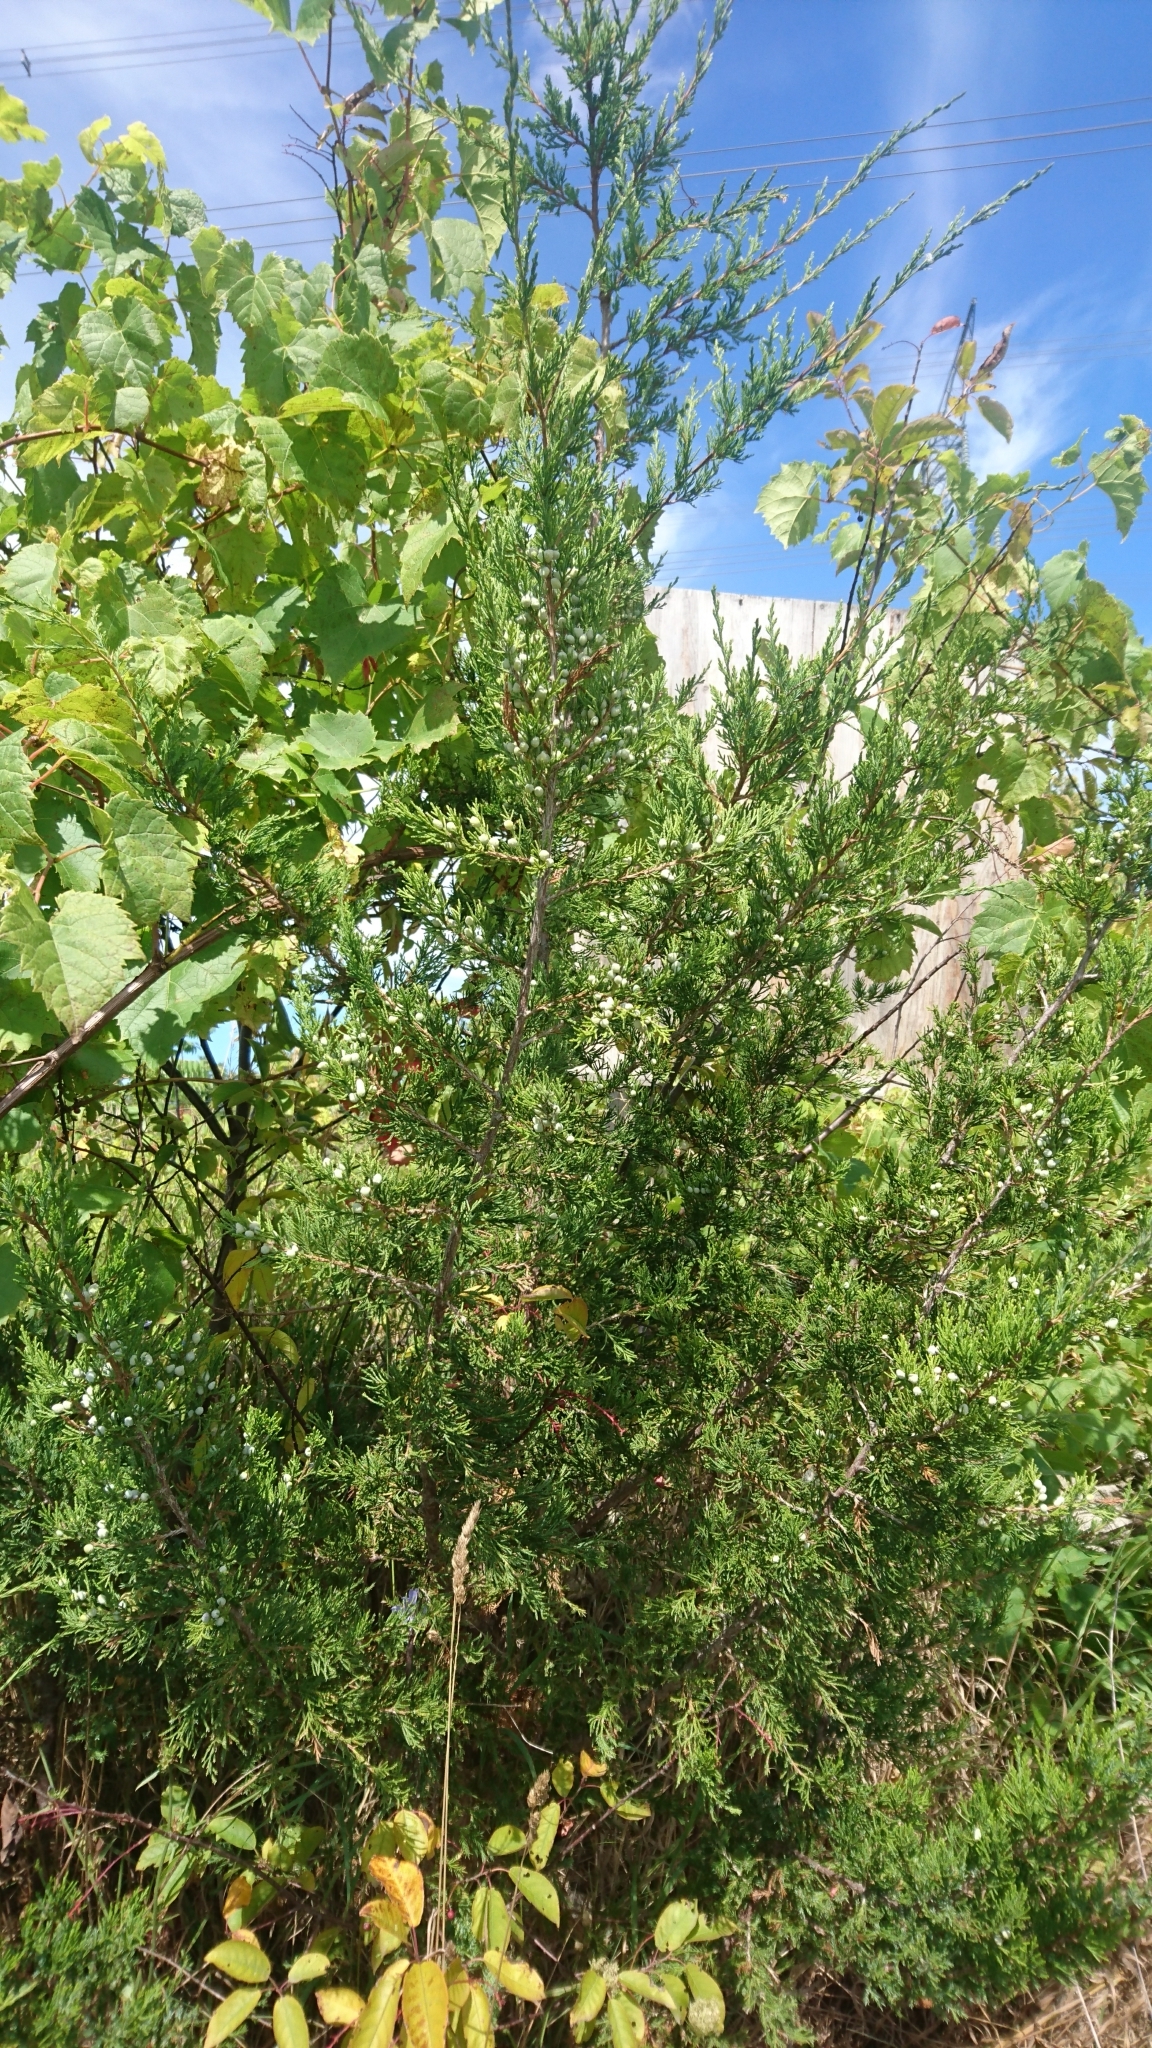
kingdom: Plantae
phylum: Tracheophyta
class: Pinopsida
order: Pinales
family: Cupressaceae
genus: Juniperus
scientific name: Juniperus virginiana
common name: Red juniper
